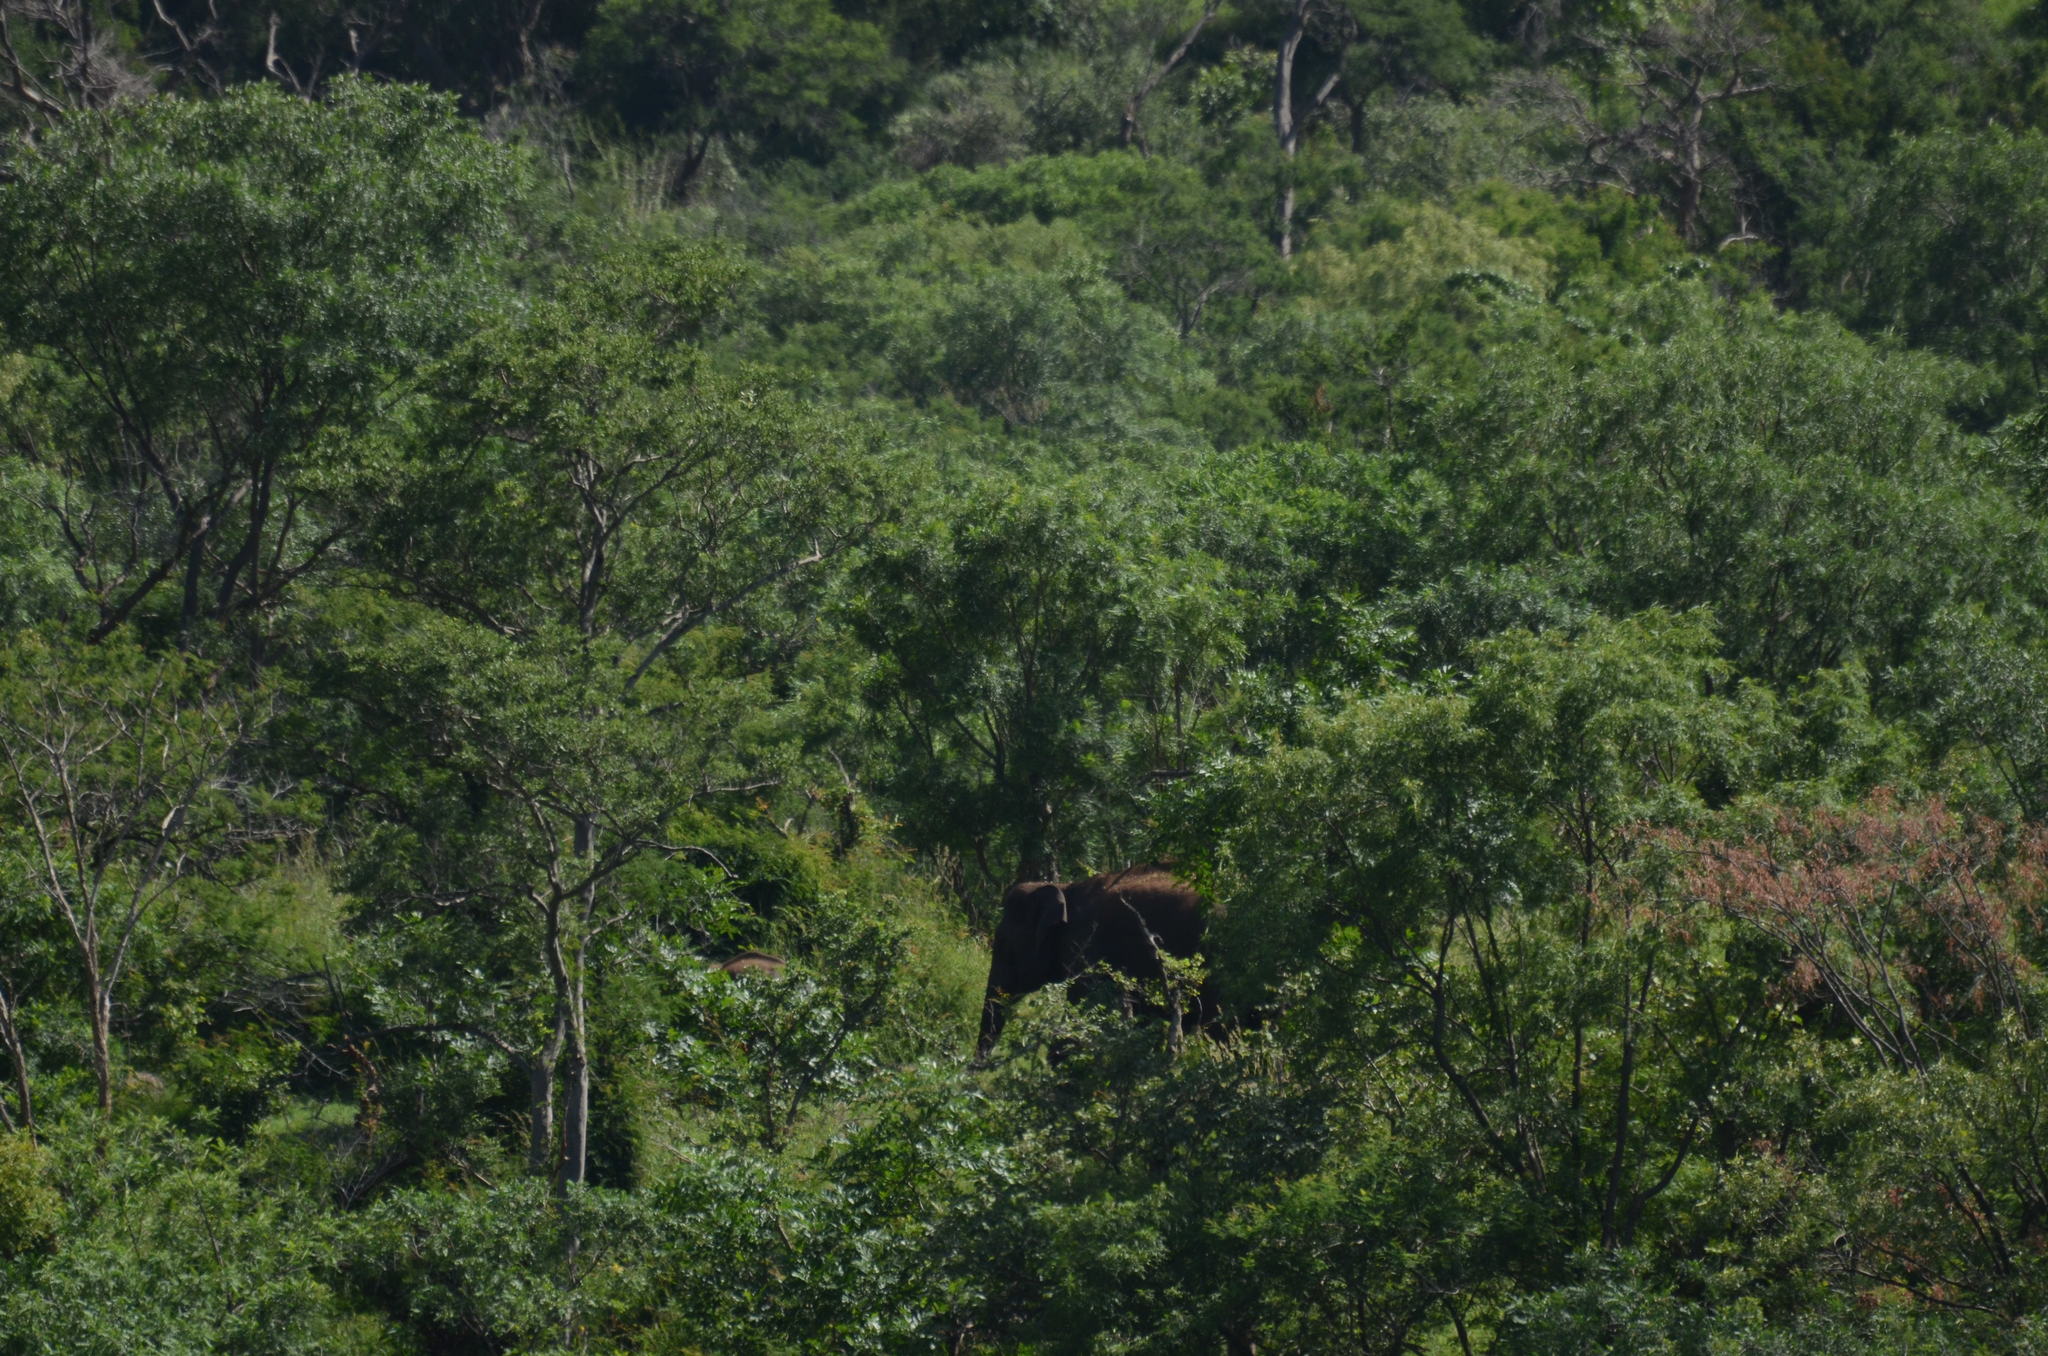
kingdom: Animalia
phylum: Chordata
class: Mammalia
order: Proboscidea
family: Elephantidae
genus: Elephas
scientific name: Elephas maximus
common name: Asian elephant
